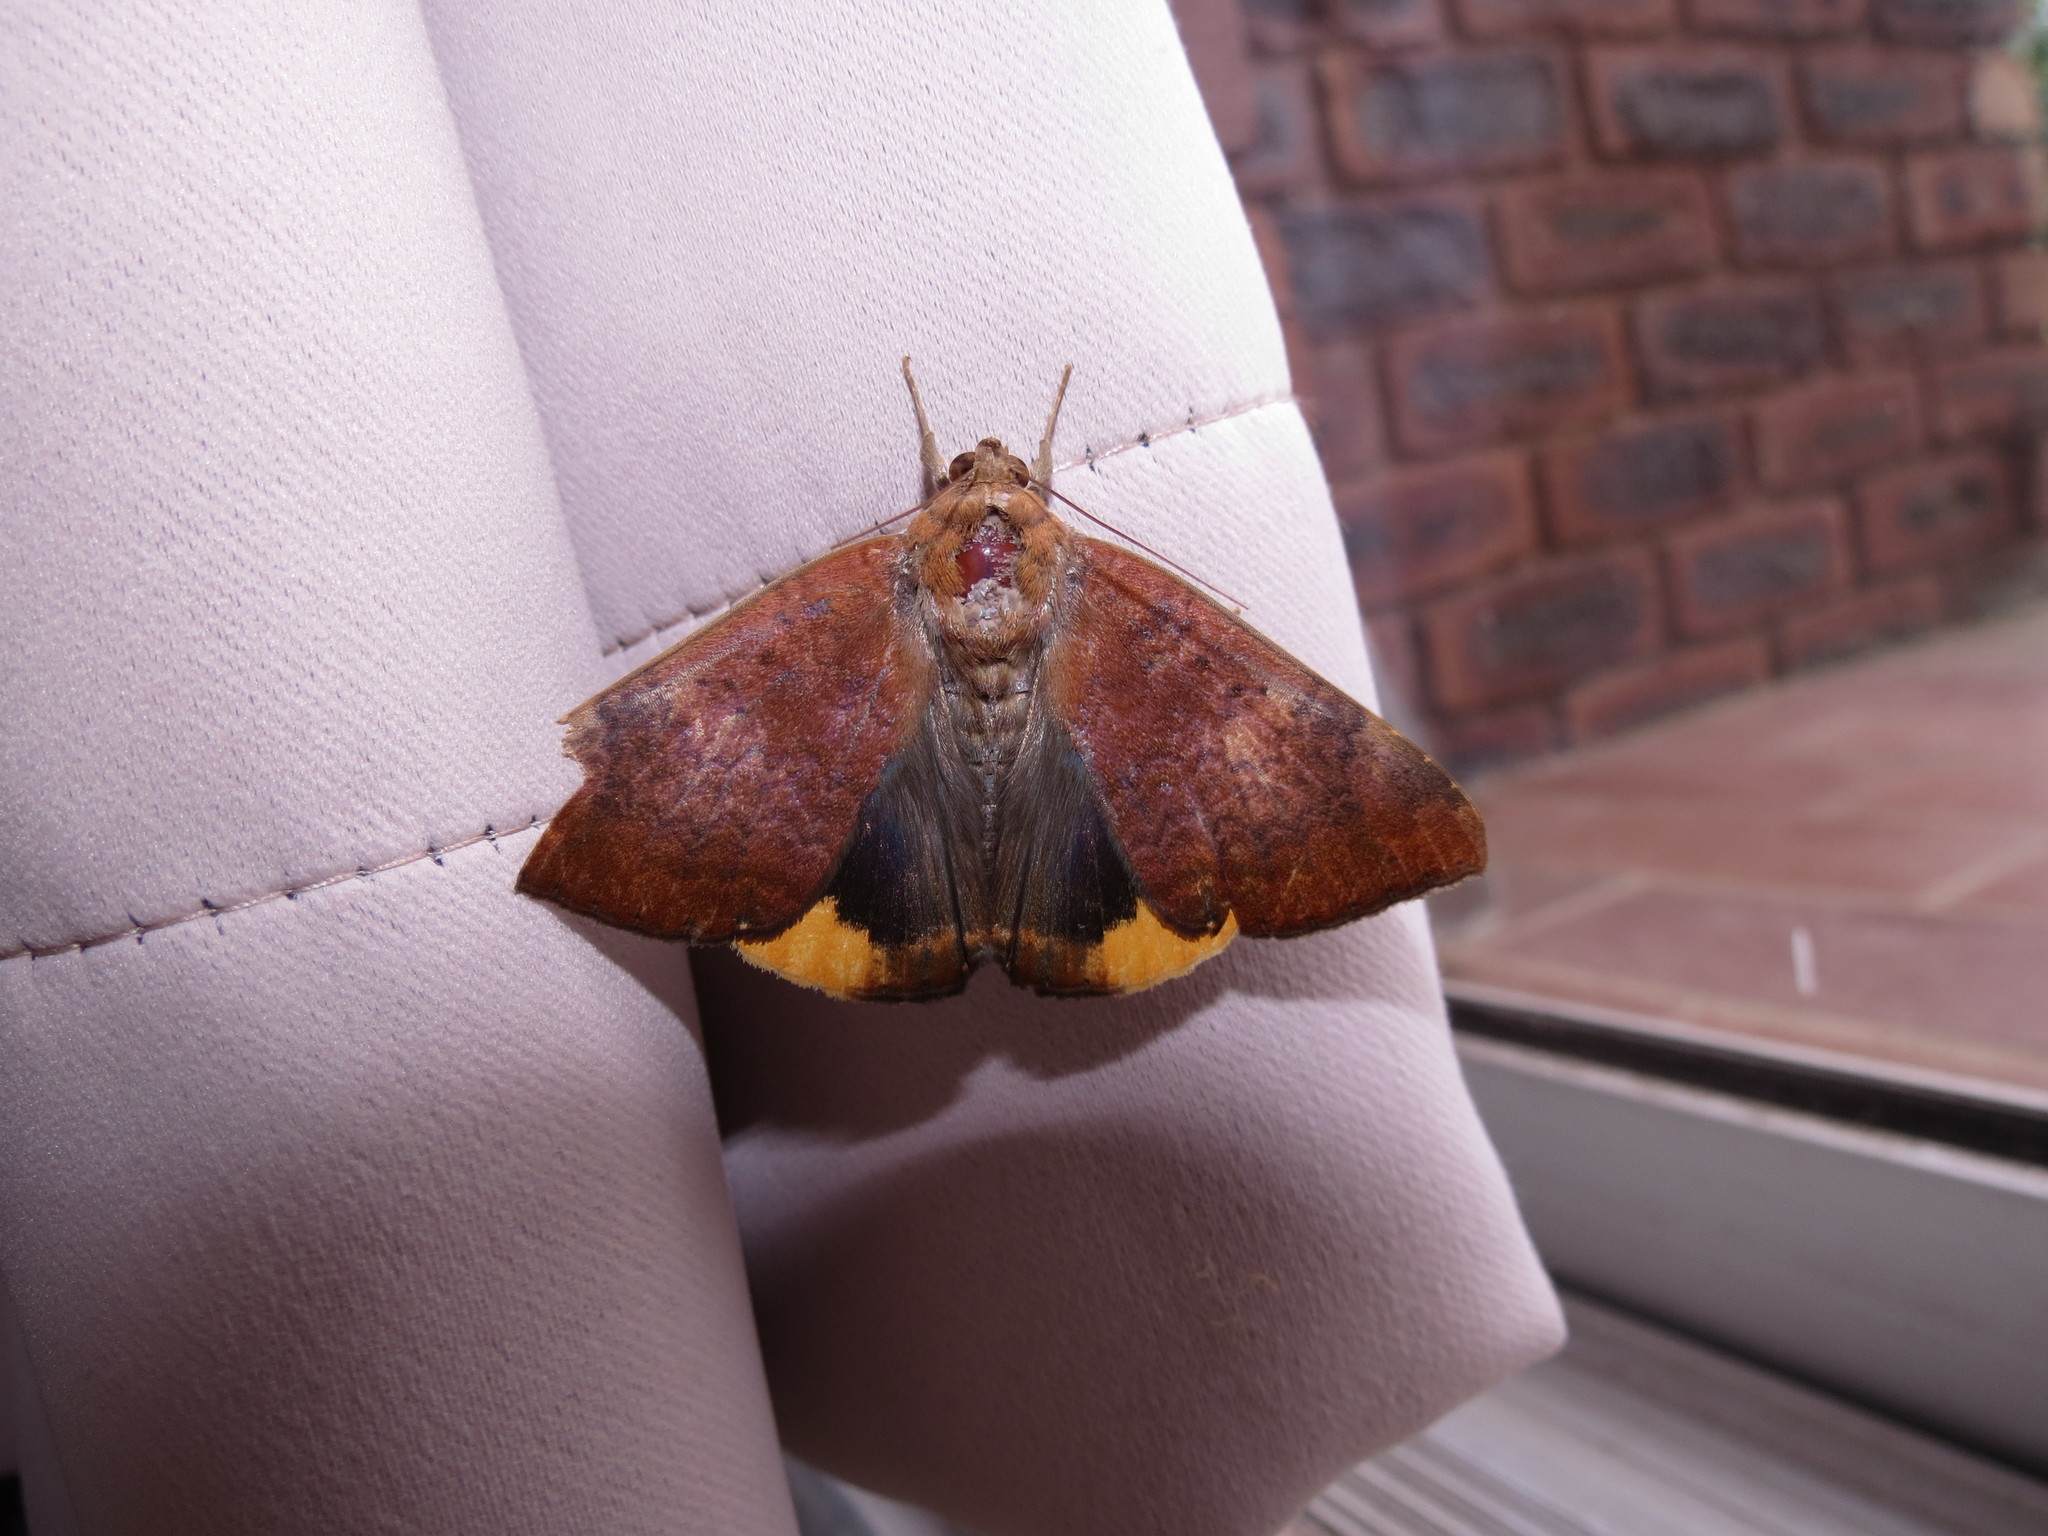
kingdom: Animalia
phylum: Arthropoda
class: Insecta
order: Lepidoptera
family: Erebidae
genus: Achaea
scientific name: Achaea praestans
